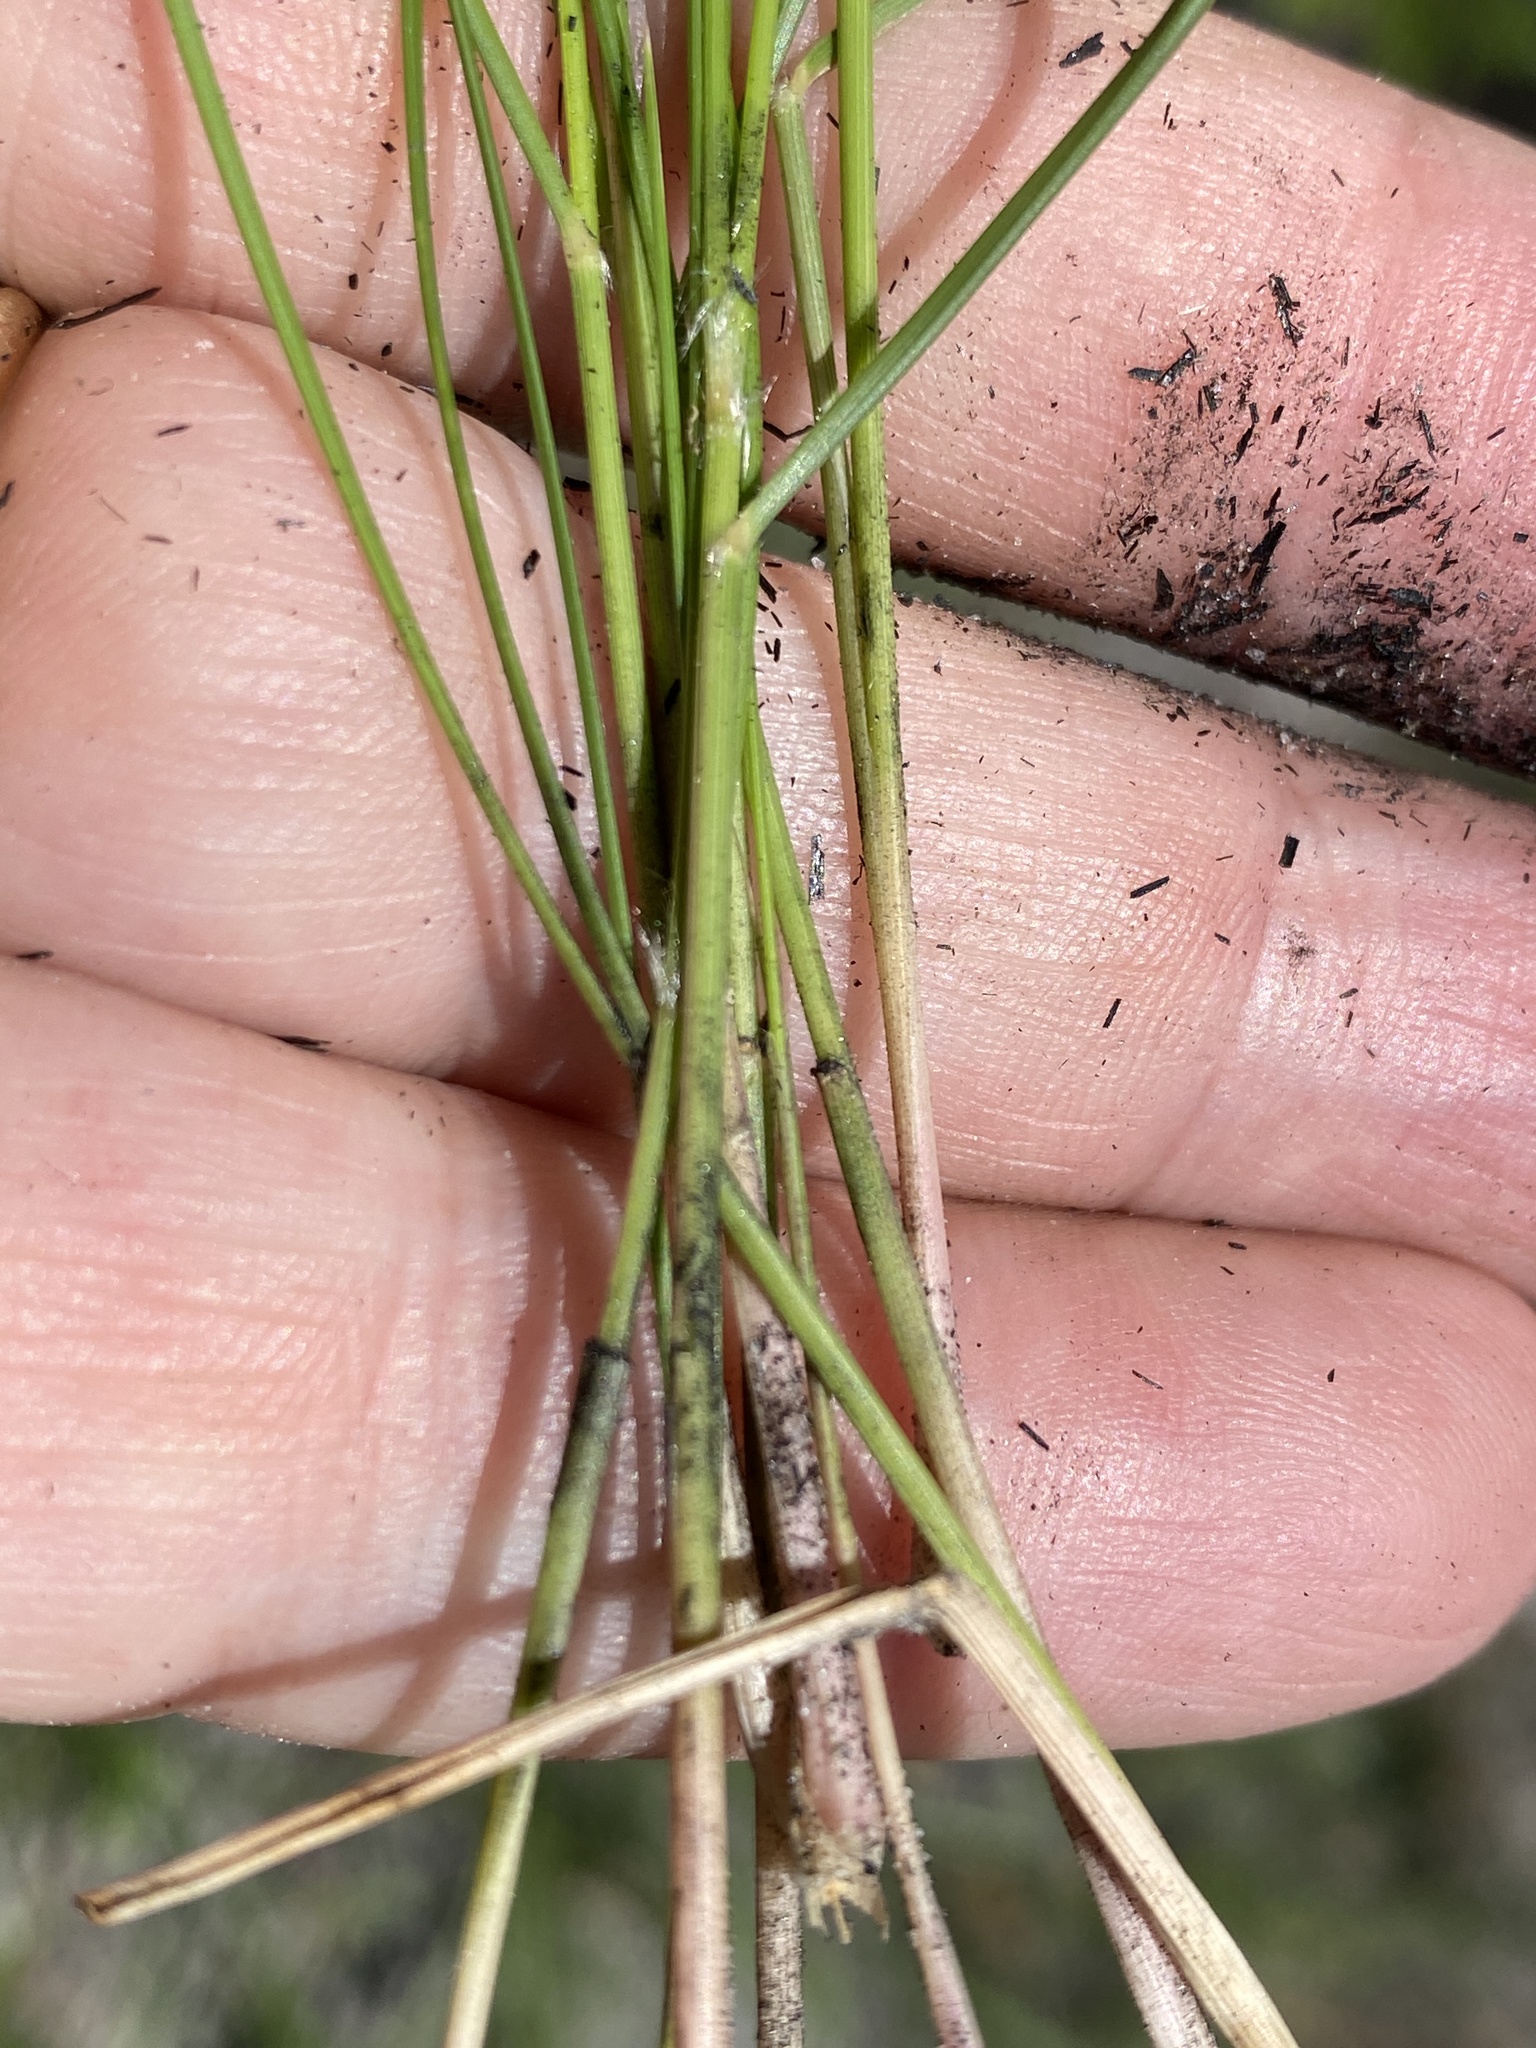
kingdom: Plantae
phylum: Tracheophyta
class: Liliopsida
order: Poales
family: Poaceae
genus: Aristida
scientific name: Aristida beyrichiana
